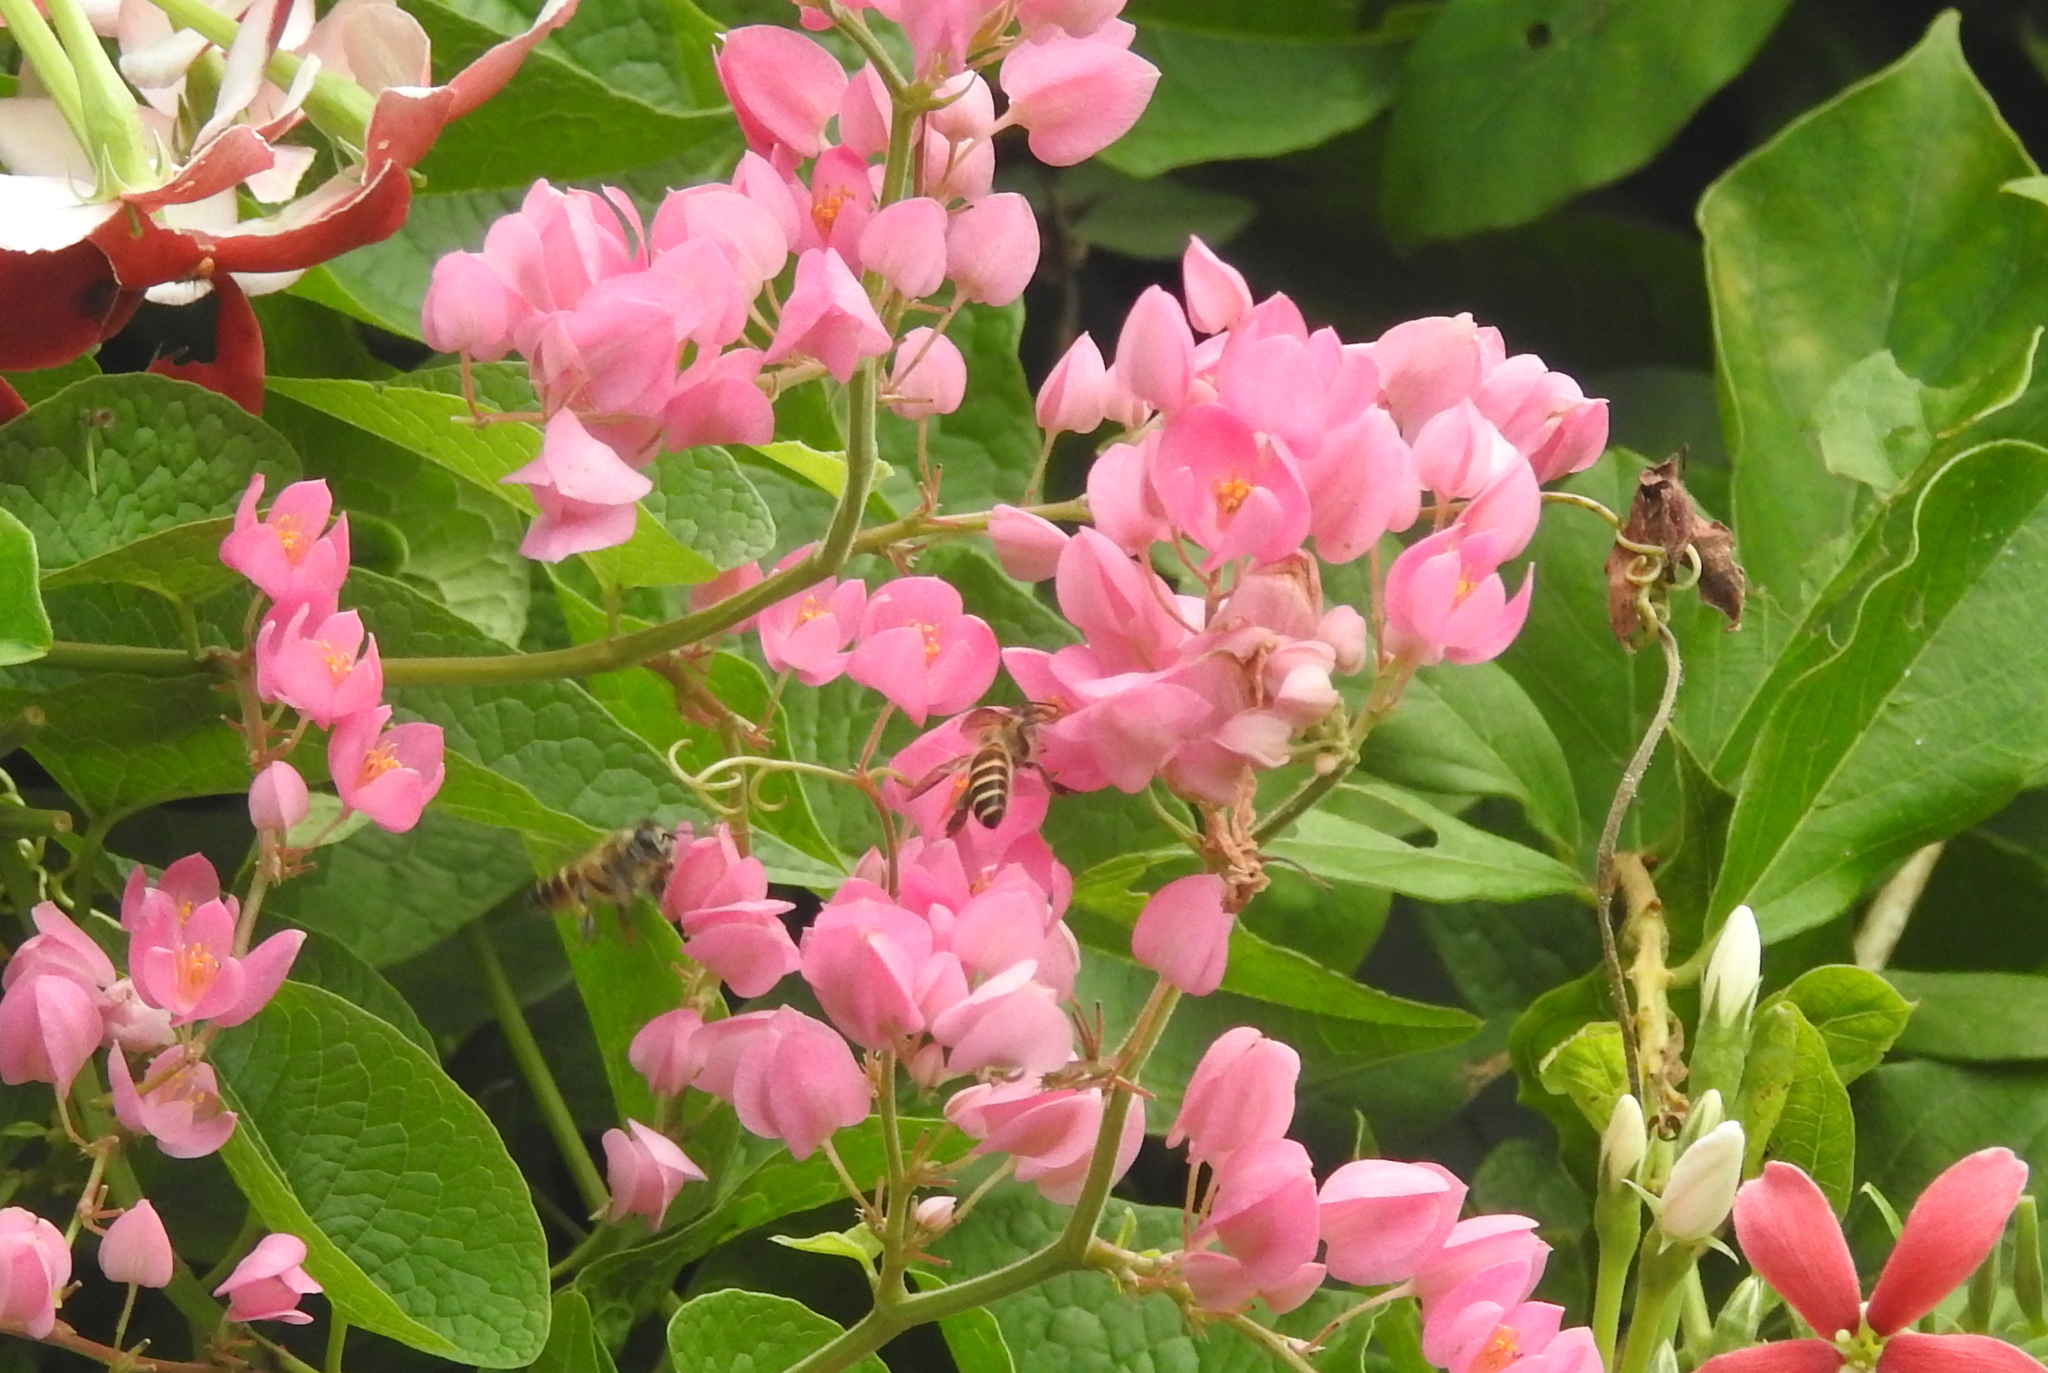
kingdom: Animalia
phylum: Arthropoda
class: Insecta
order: Hymenoptera
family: Apidae
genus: Apis
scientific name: Apis cerana
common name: Honey bee
